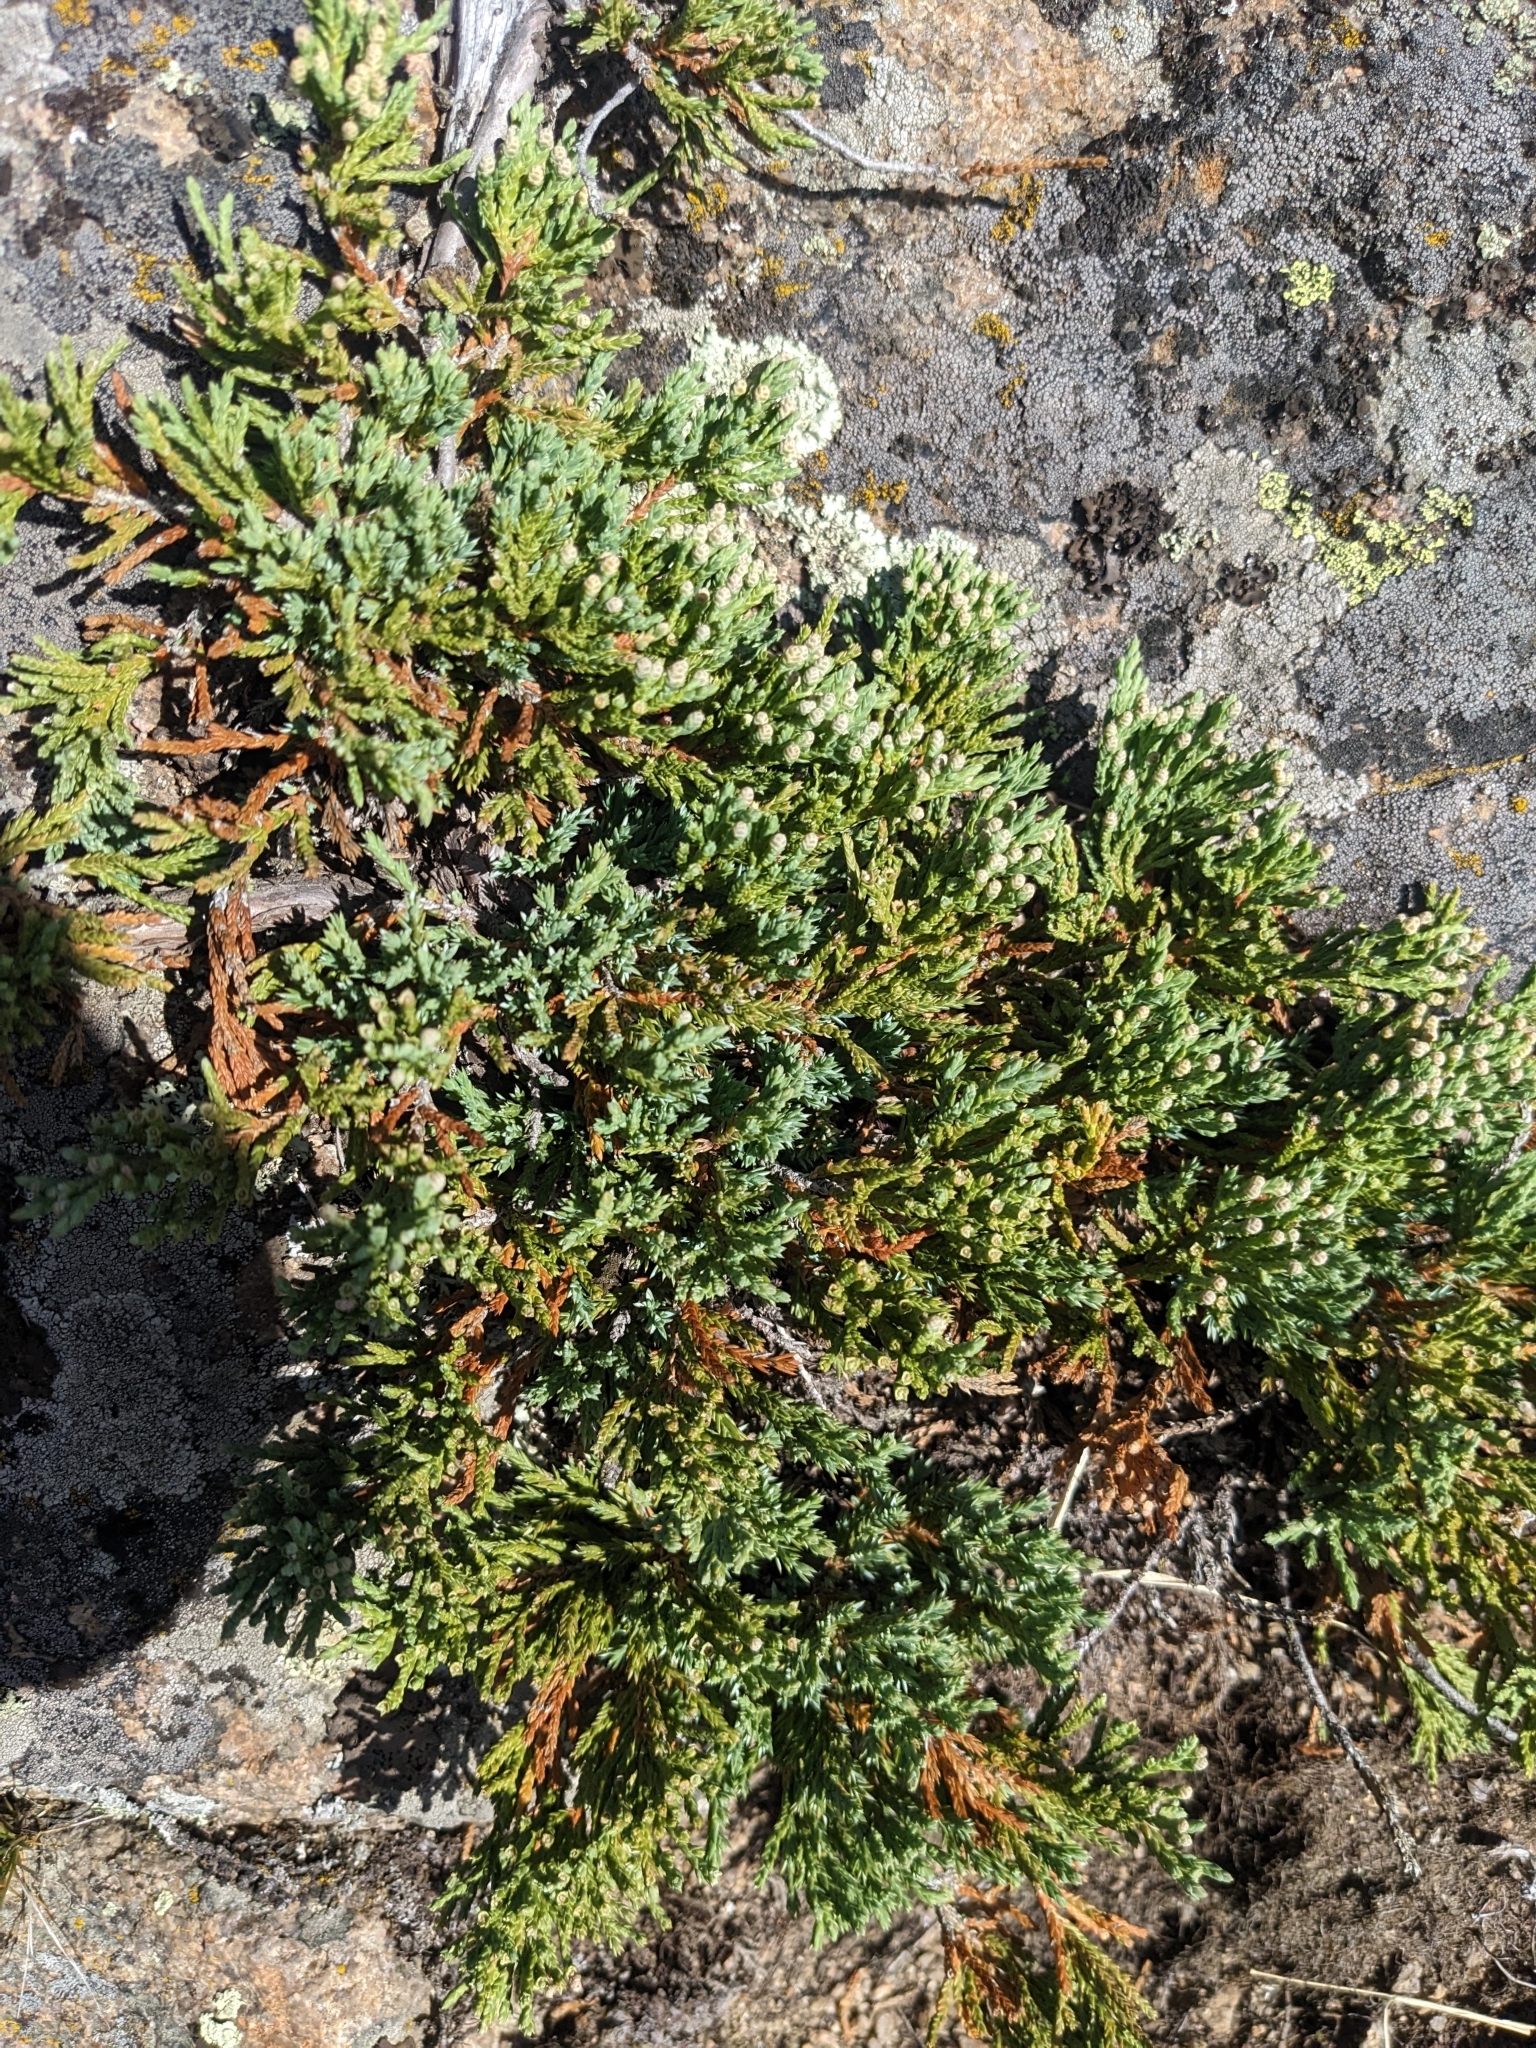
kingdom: Plantae
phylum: Tracheophyta
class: Pinopsida
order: Pinales
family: Cupressaceae
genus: Juniperus
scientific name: Juniperus horizontalis
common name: Creeping juniper
